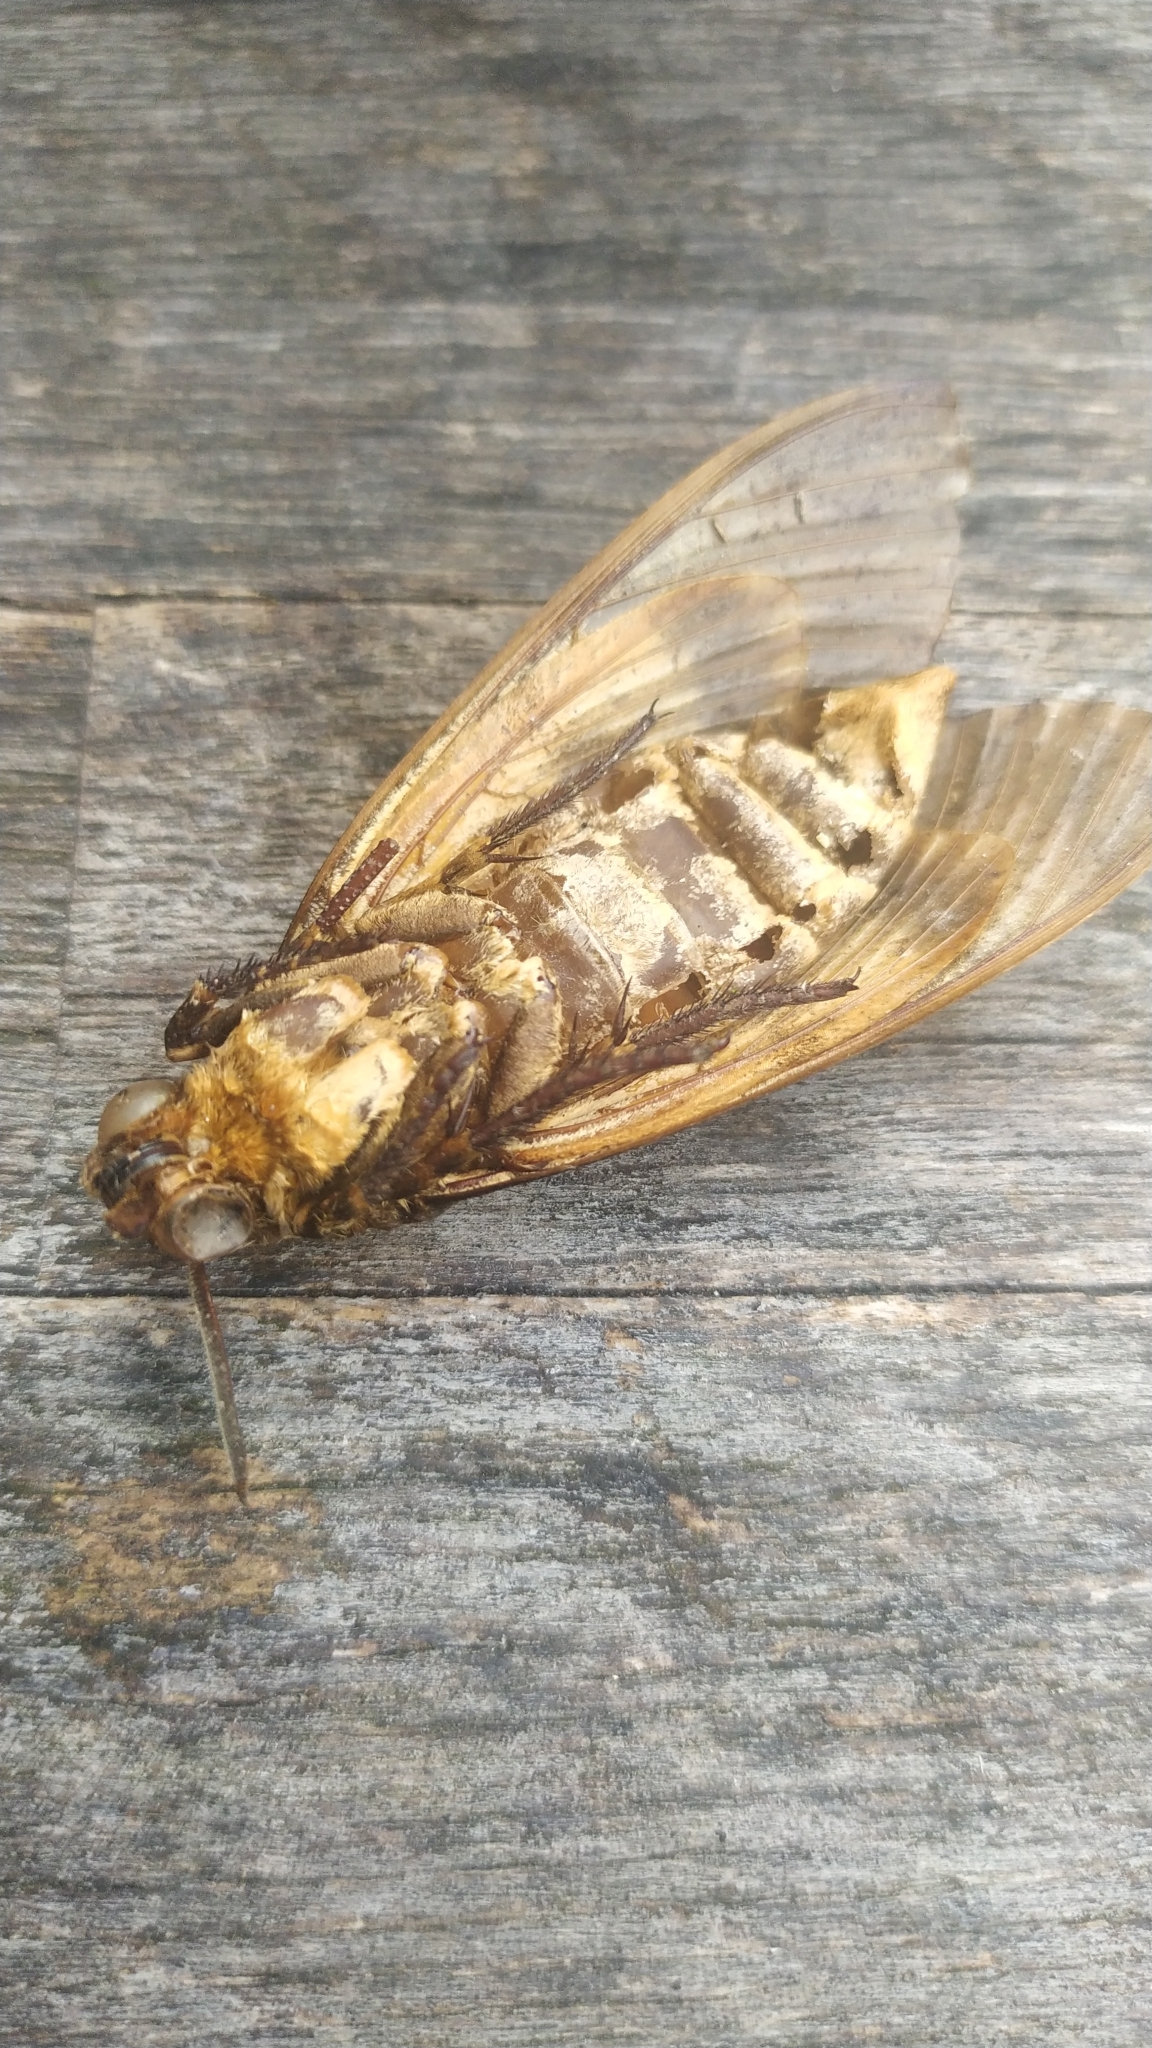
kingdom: Animalia
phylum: Arthropoda
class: Insecta
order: Lepidoptera
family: Sphingidae
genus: Acherontia
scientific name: Acherontia atropos
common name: Death's-head hawk moth
